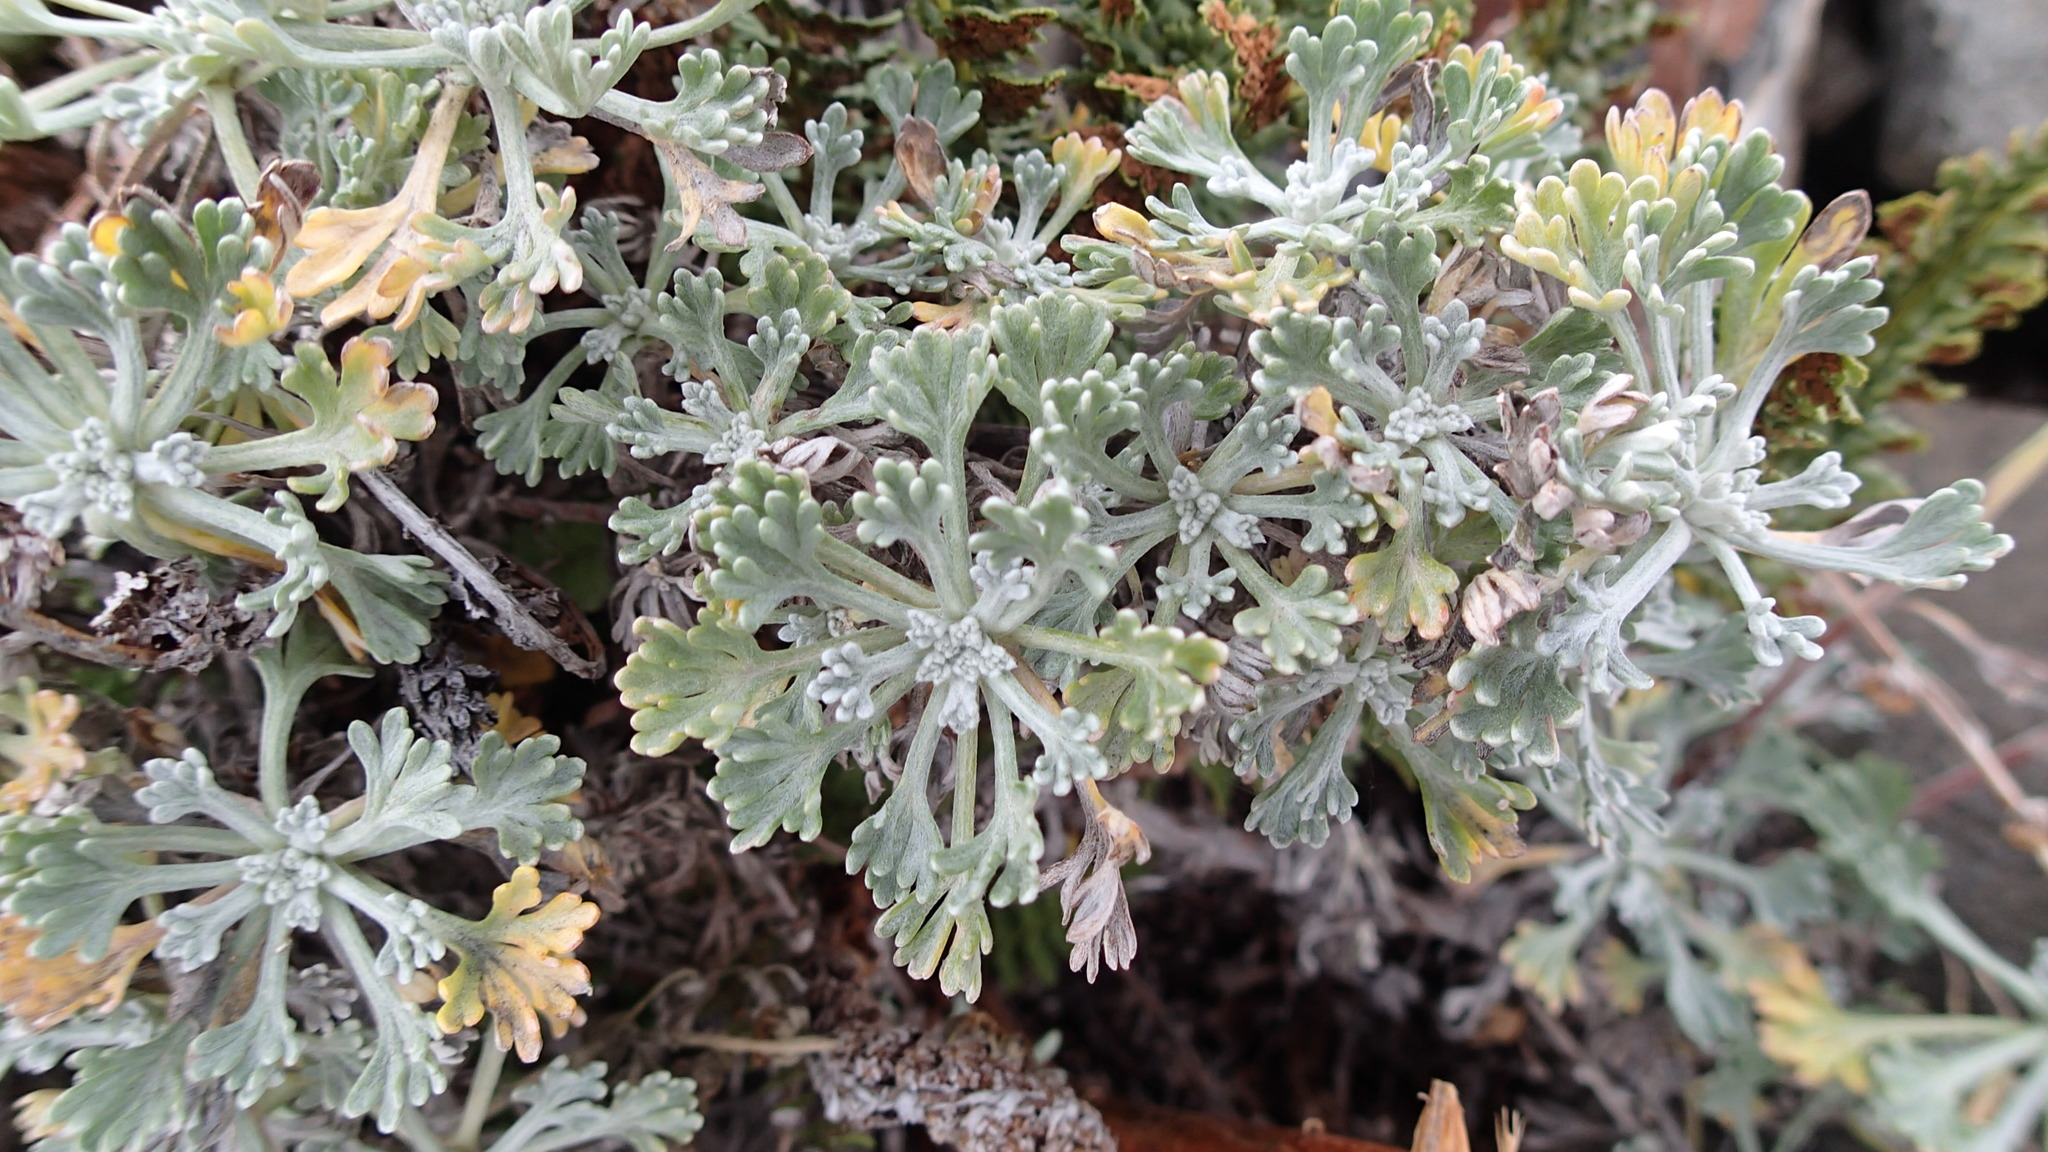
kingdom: Plantae
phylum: Tracheophyta
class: Magnoliopsida
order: Asterales
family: Asteraceae
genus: Artemisia
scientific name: Artemisia kruhsiana
